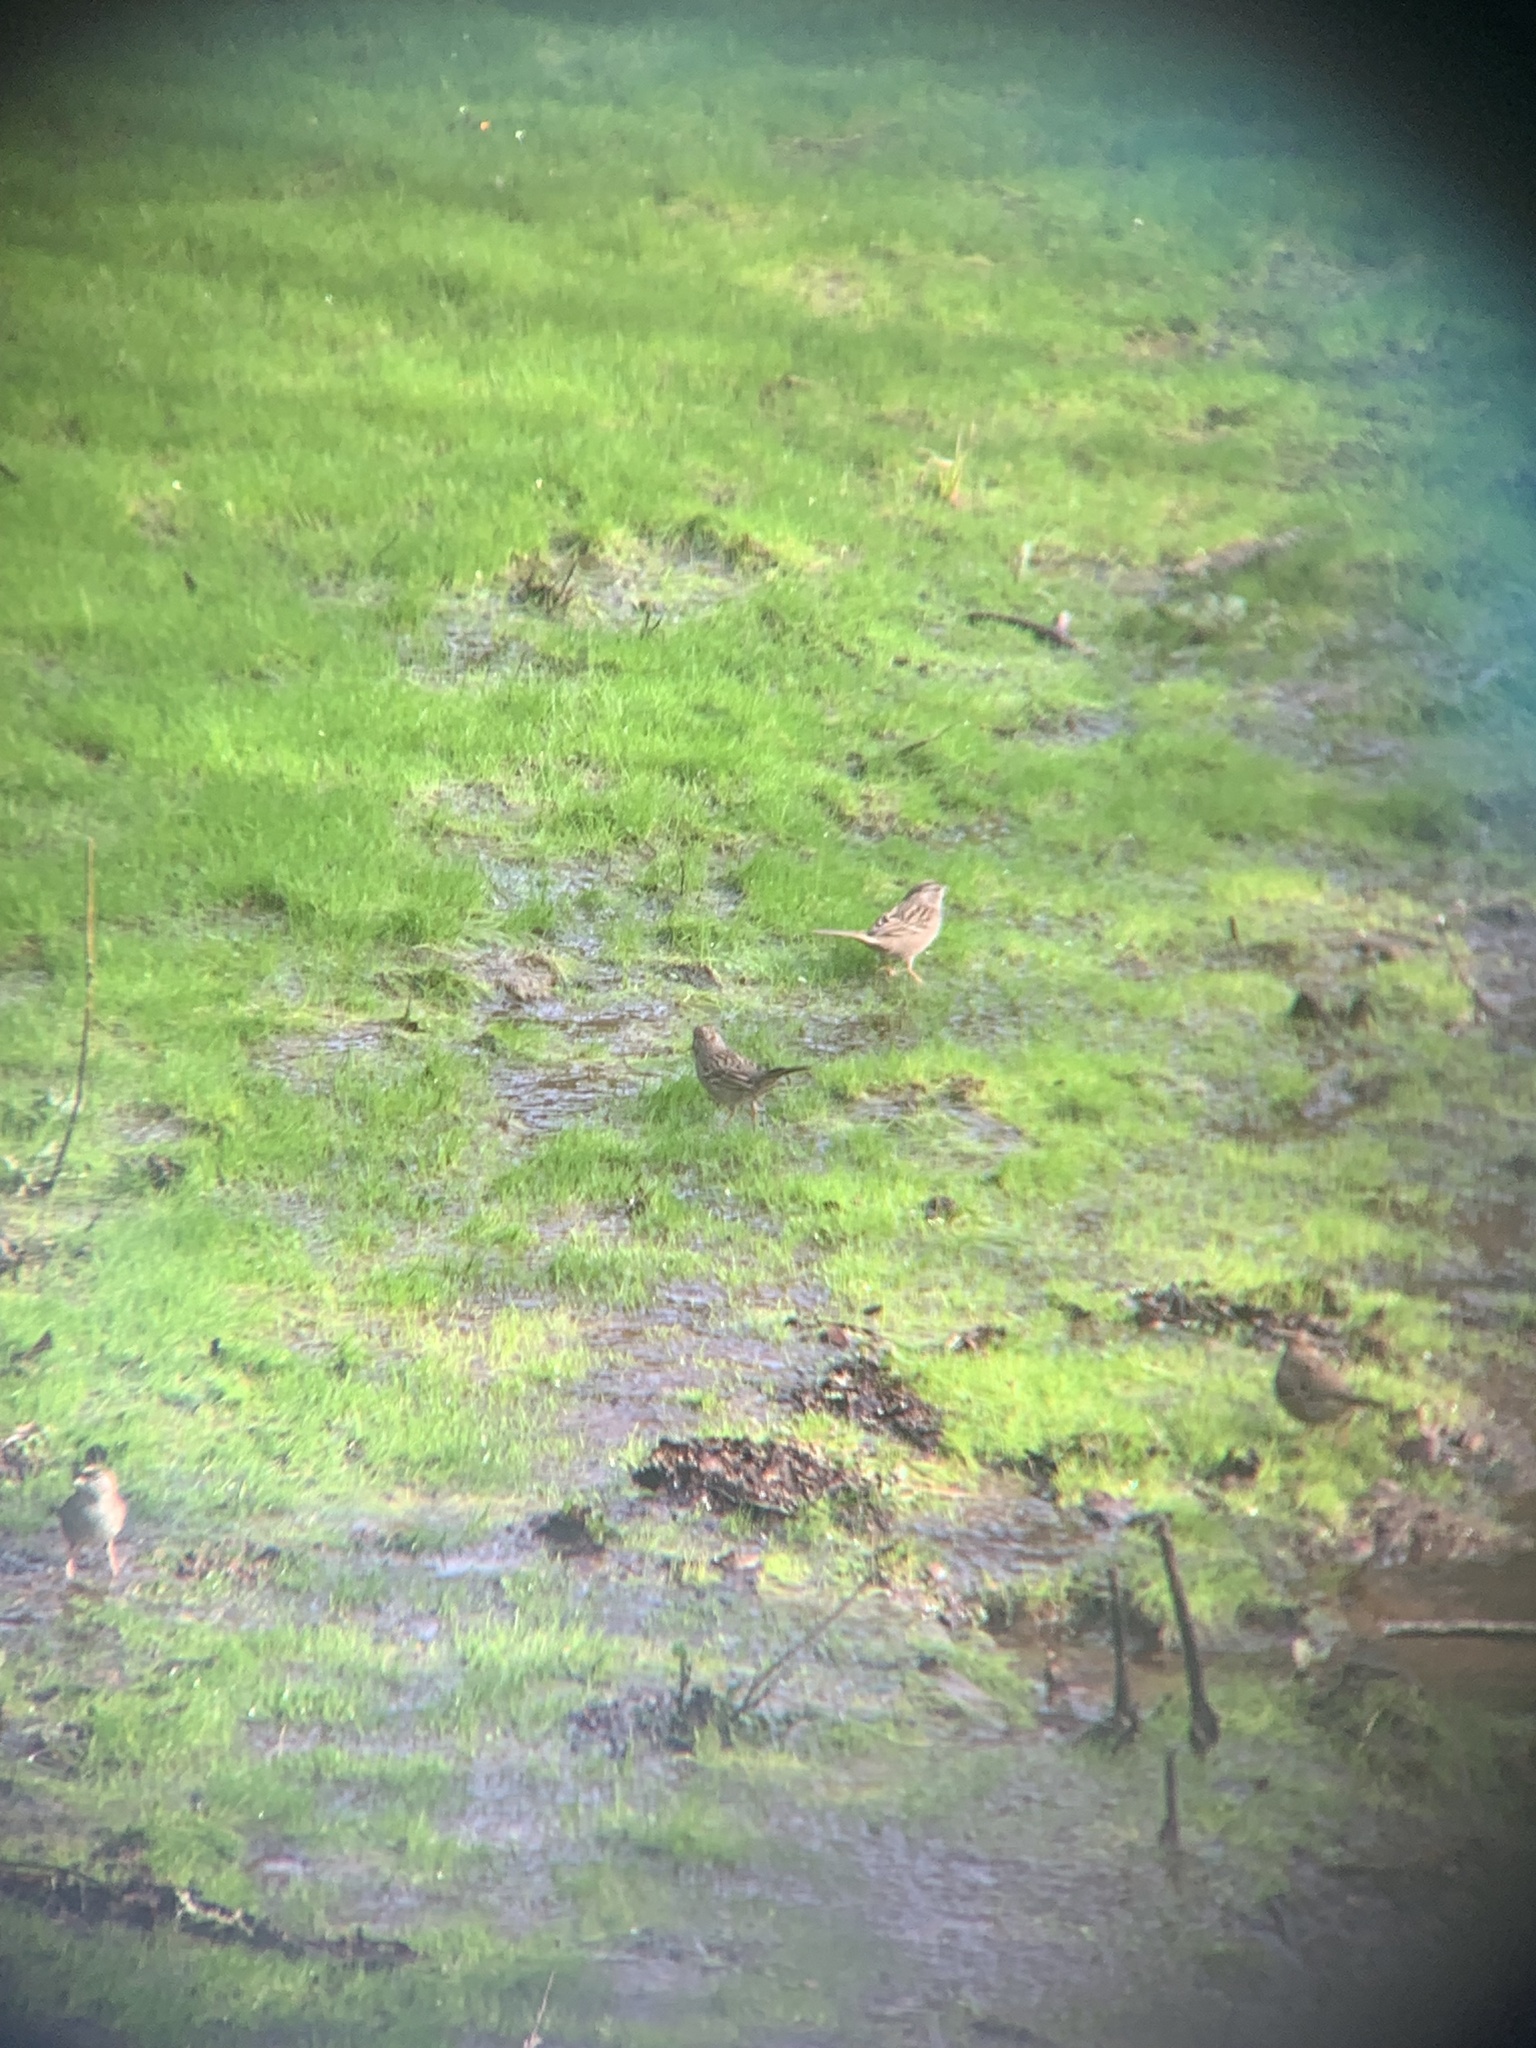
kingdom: Animalia
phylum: Chordata
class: Aves
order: Passeriformes
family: Passerellidae
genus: Zonotrichia
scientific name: Zonotrichia atricapilla
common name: Golden-crowned sparrow
